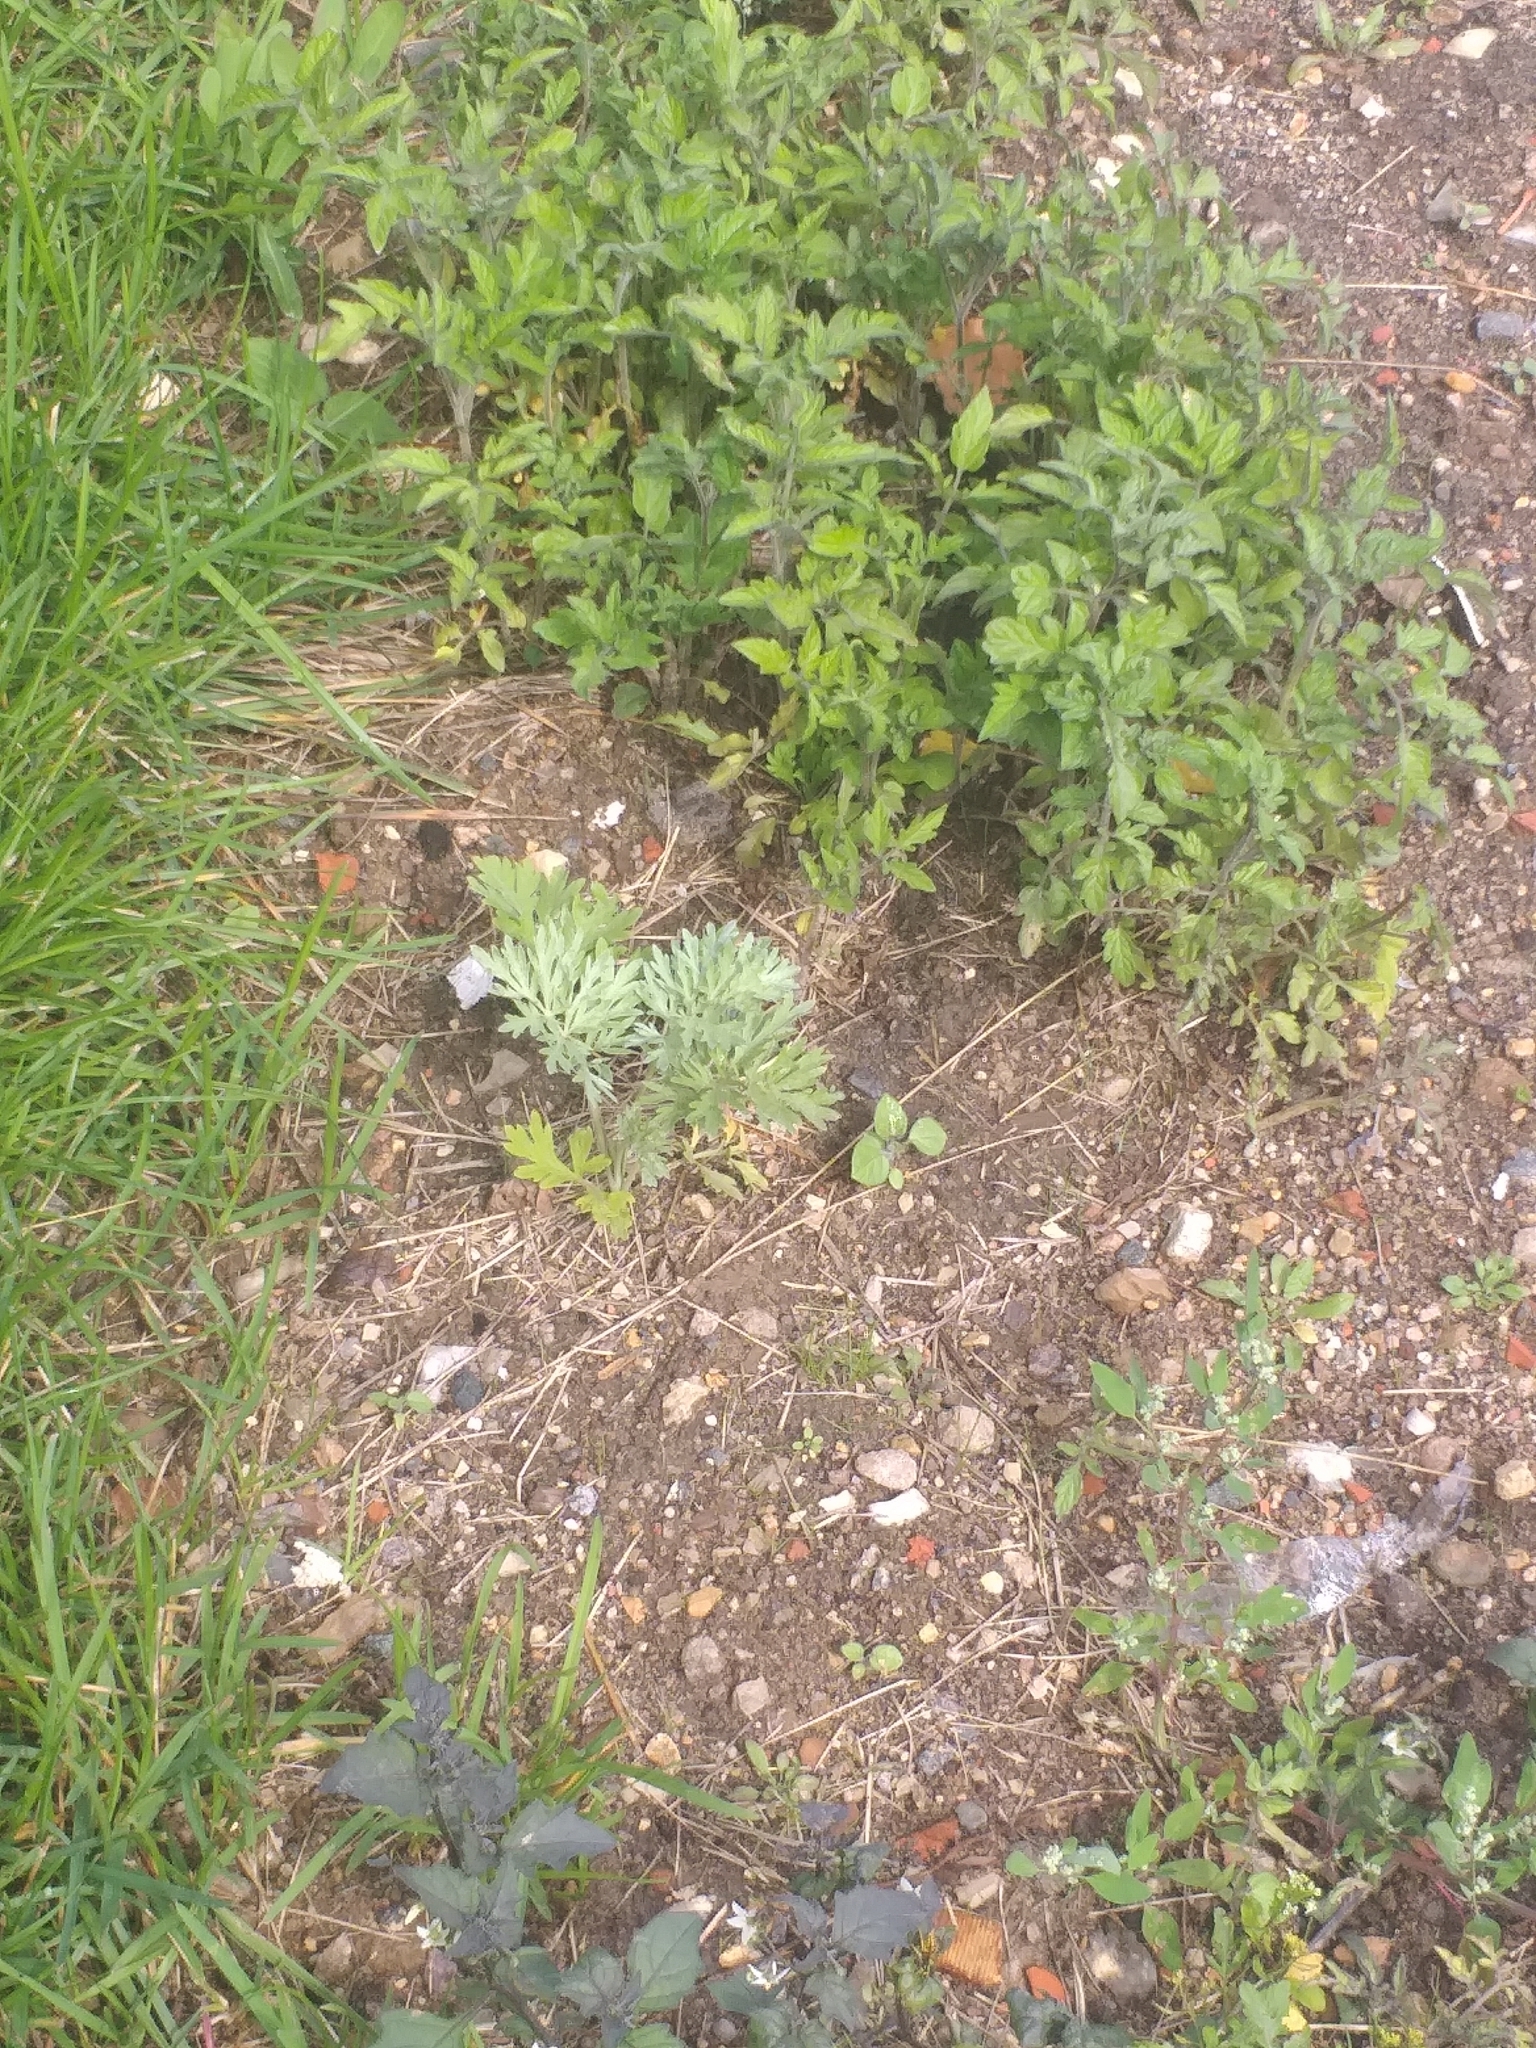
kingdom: Plantae
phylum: Tracheophyta
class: Magnoliopsida
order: Asterales
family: Asteraceae
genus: Artemisia
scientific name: Artemisia absinthium
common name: Wormwood
